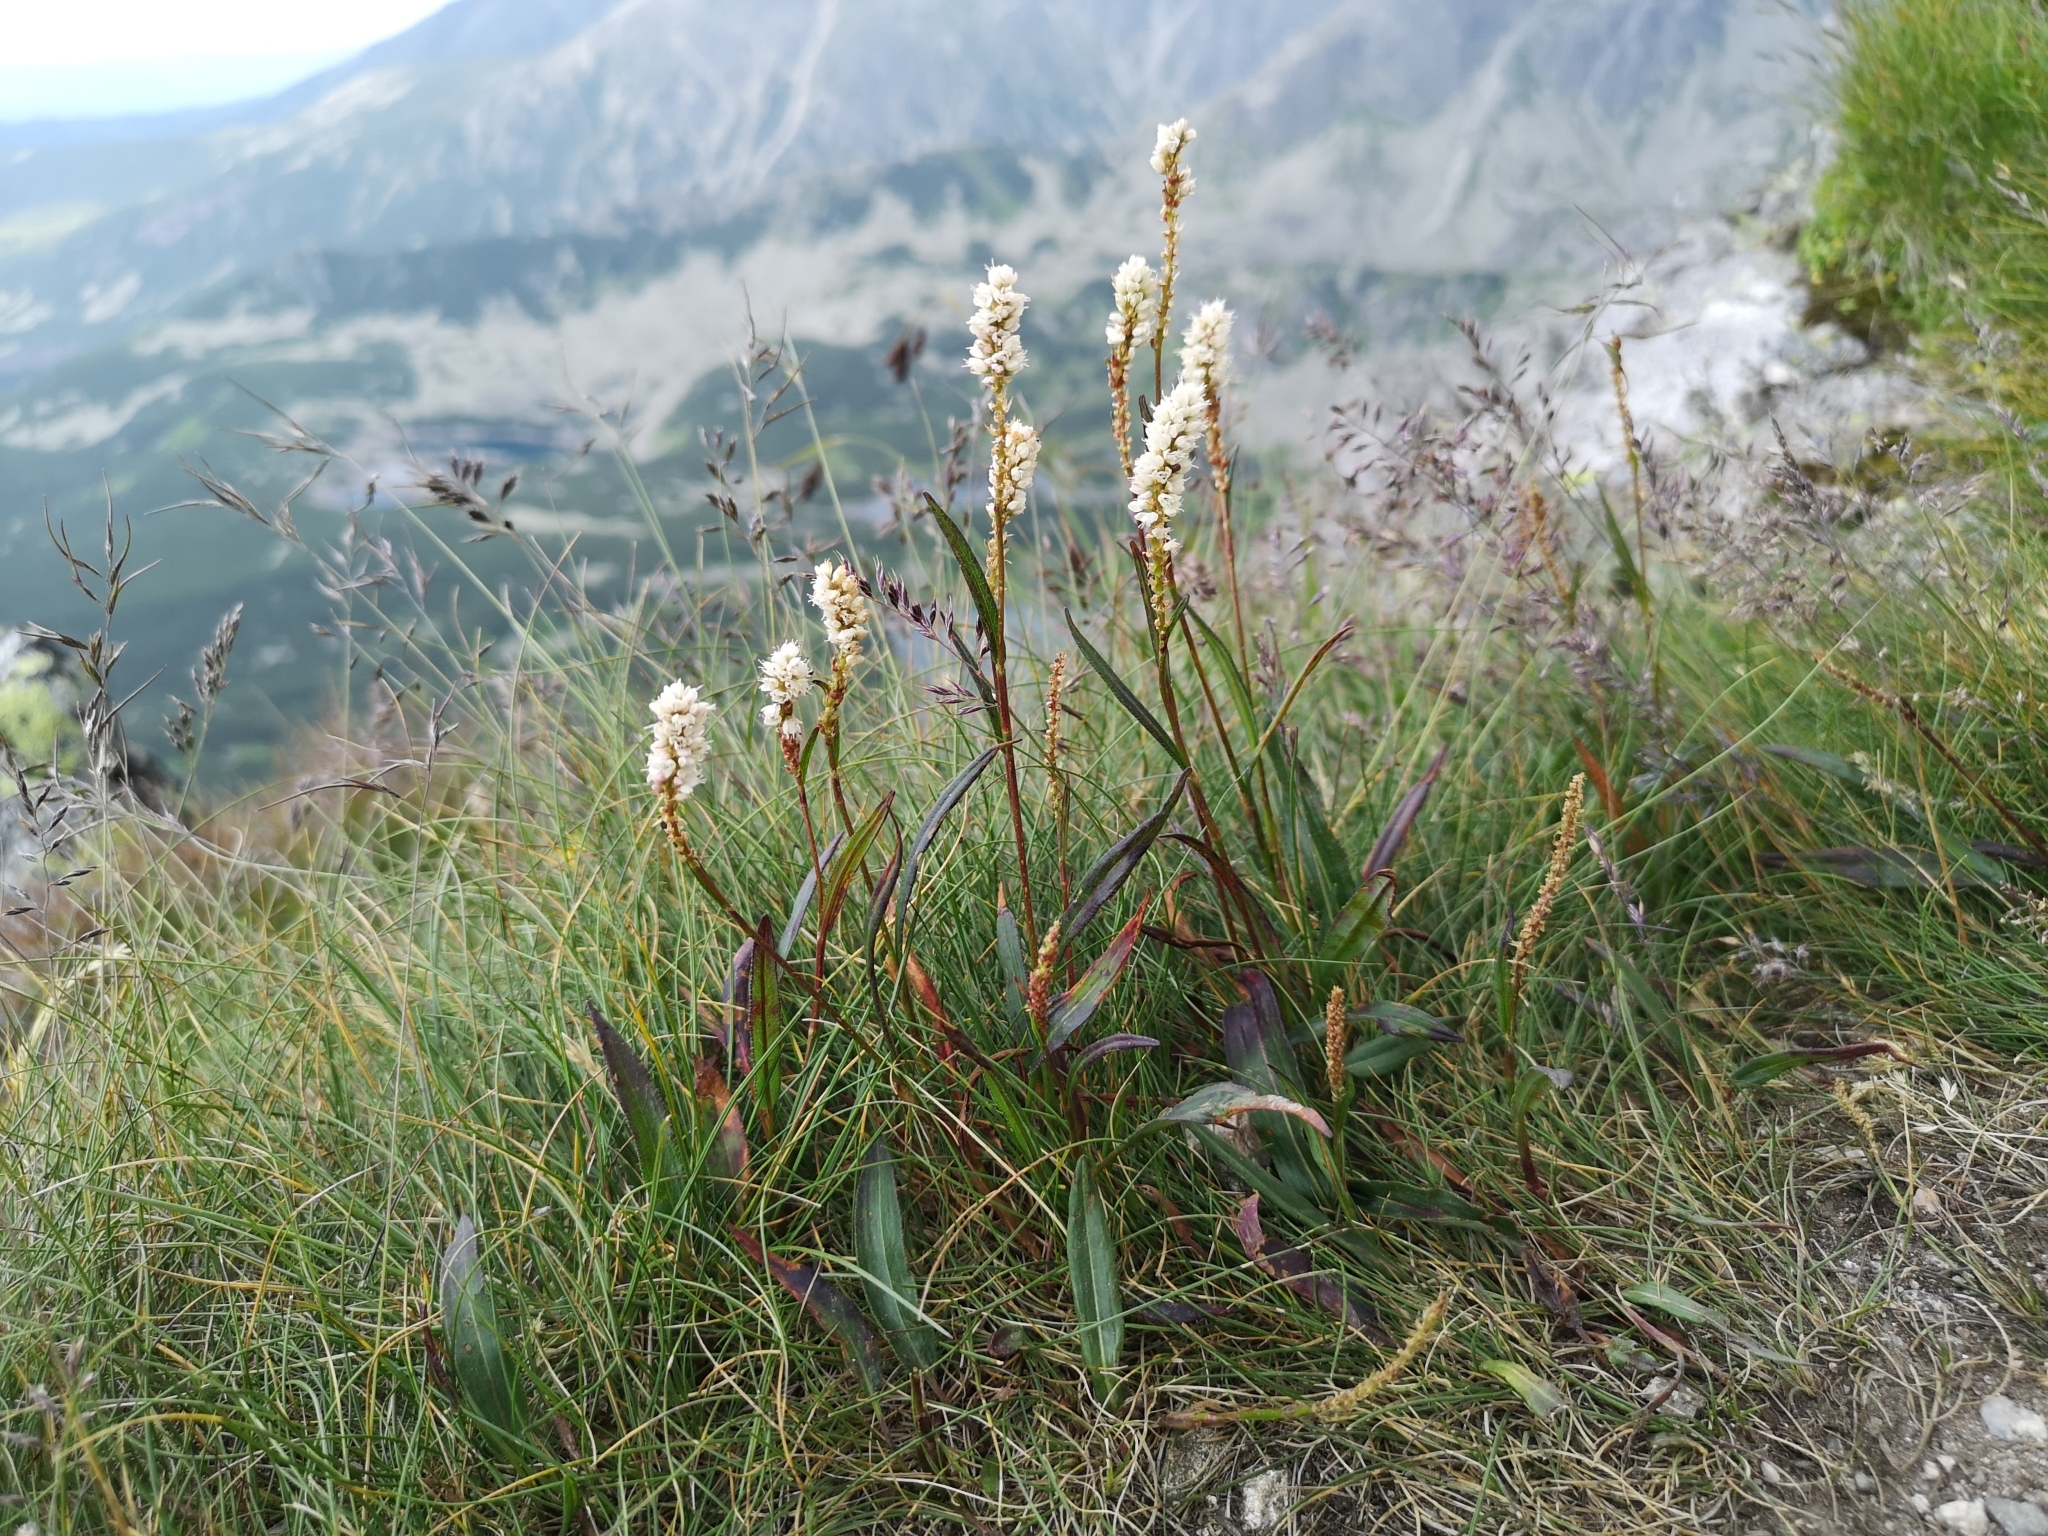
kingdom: Plantae
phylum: Tracheophyta
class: Magnoliopsida
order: Caryophyllales
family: Polygonaceae
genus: Bistorta
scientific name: Bistorta vivipara
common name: Alpine bistort
